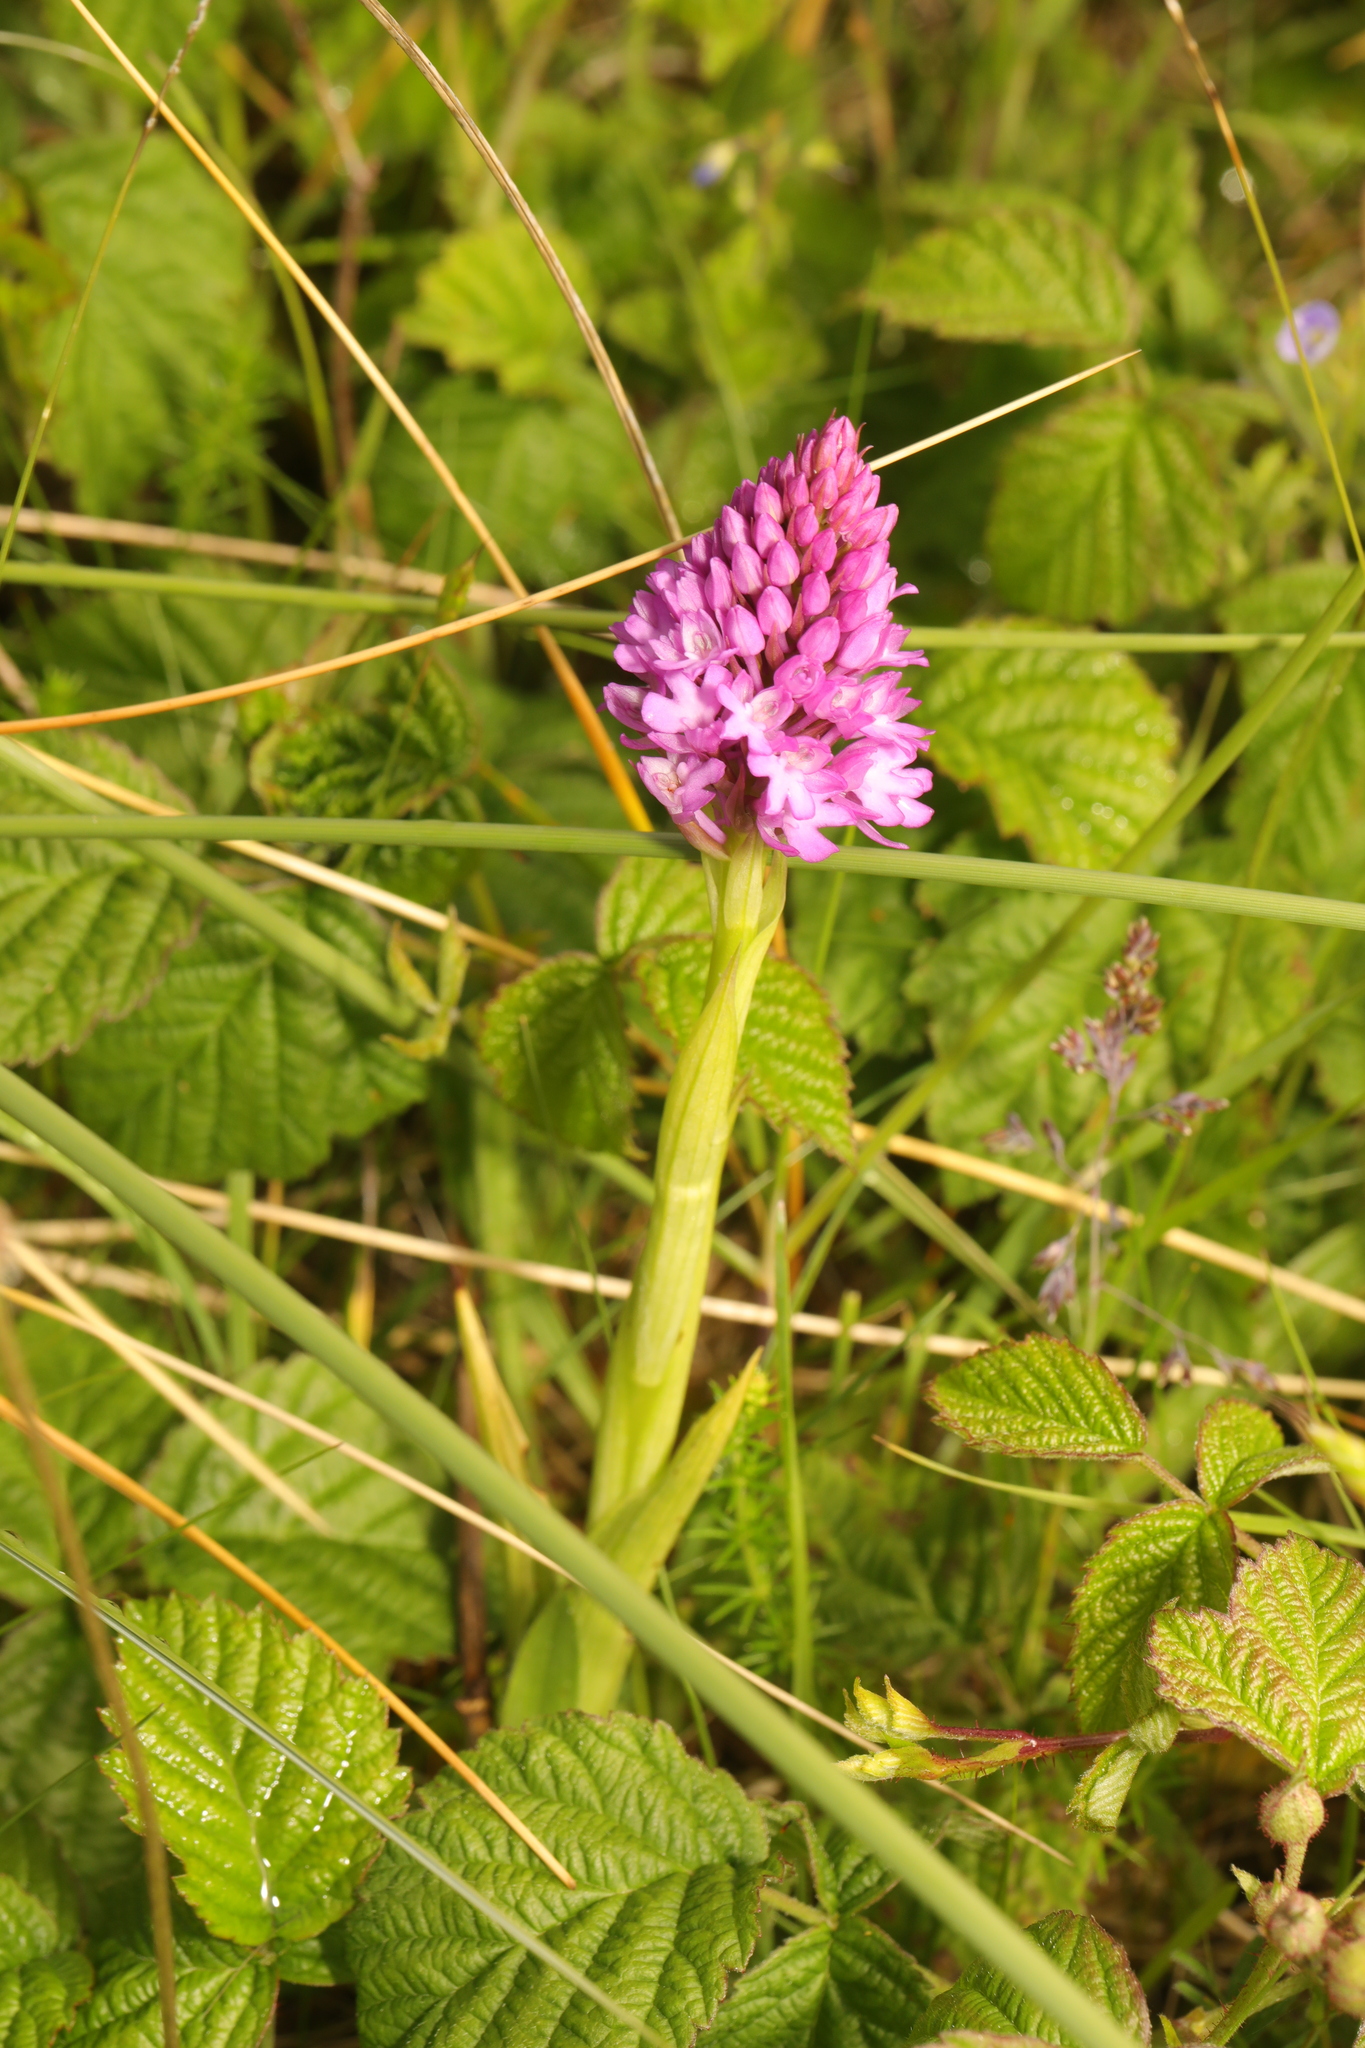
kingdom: Plantae
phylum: Tracheophyta
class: Liliopsida
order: Asparagales
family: Orchidaceae
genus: Anacamptis
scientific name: Anacamptis pyramidalis
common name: Pyramidal orchid
